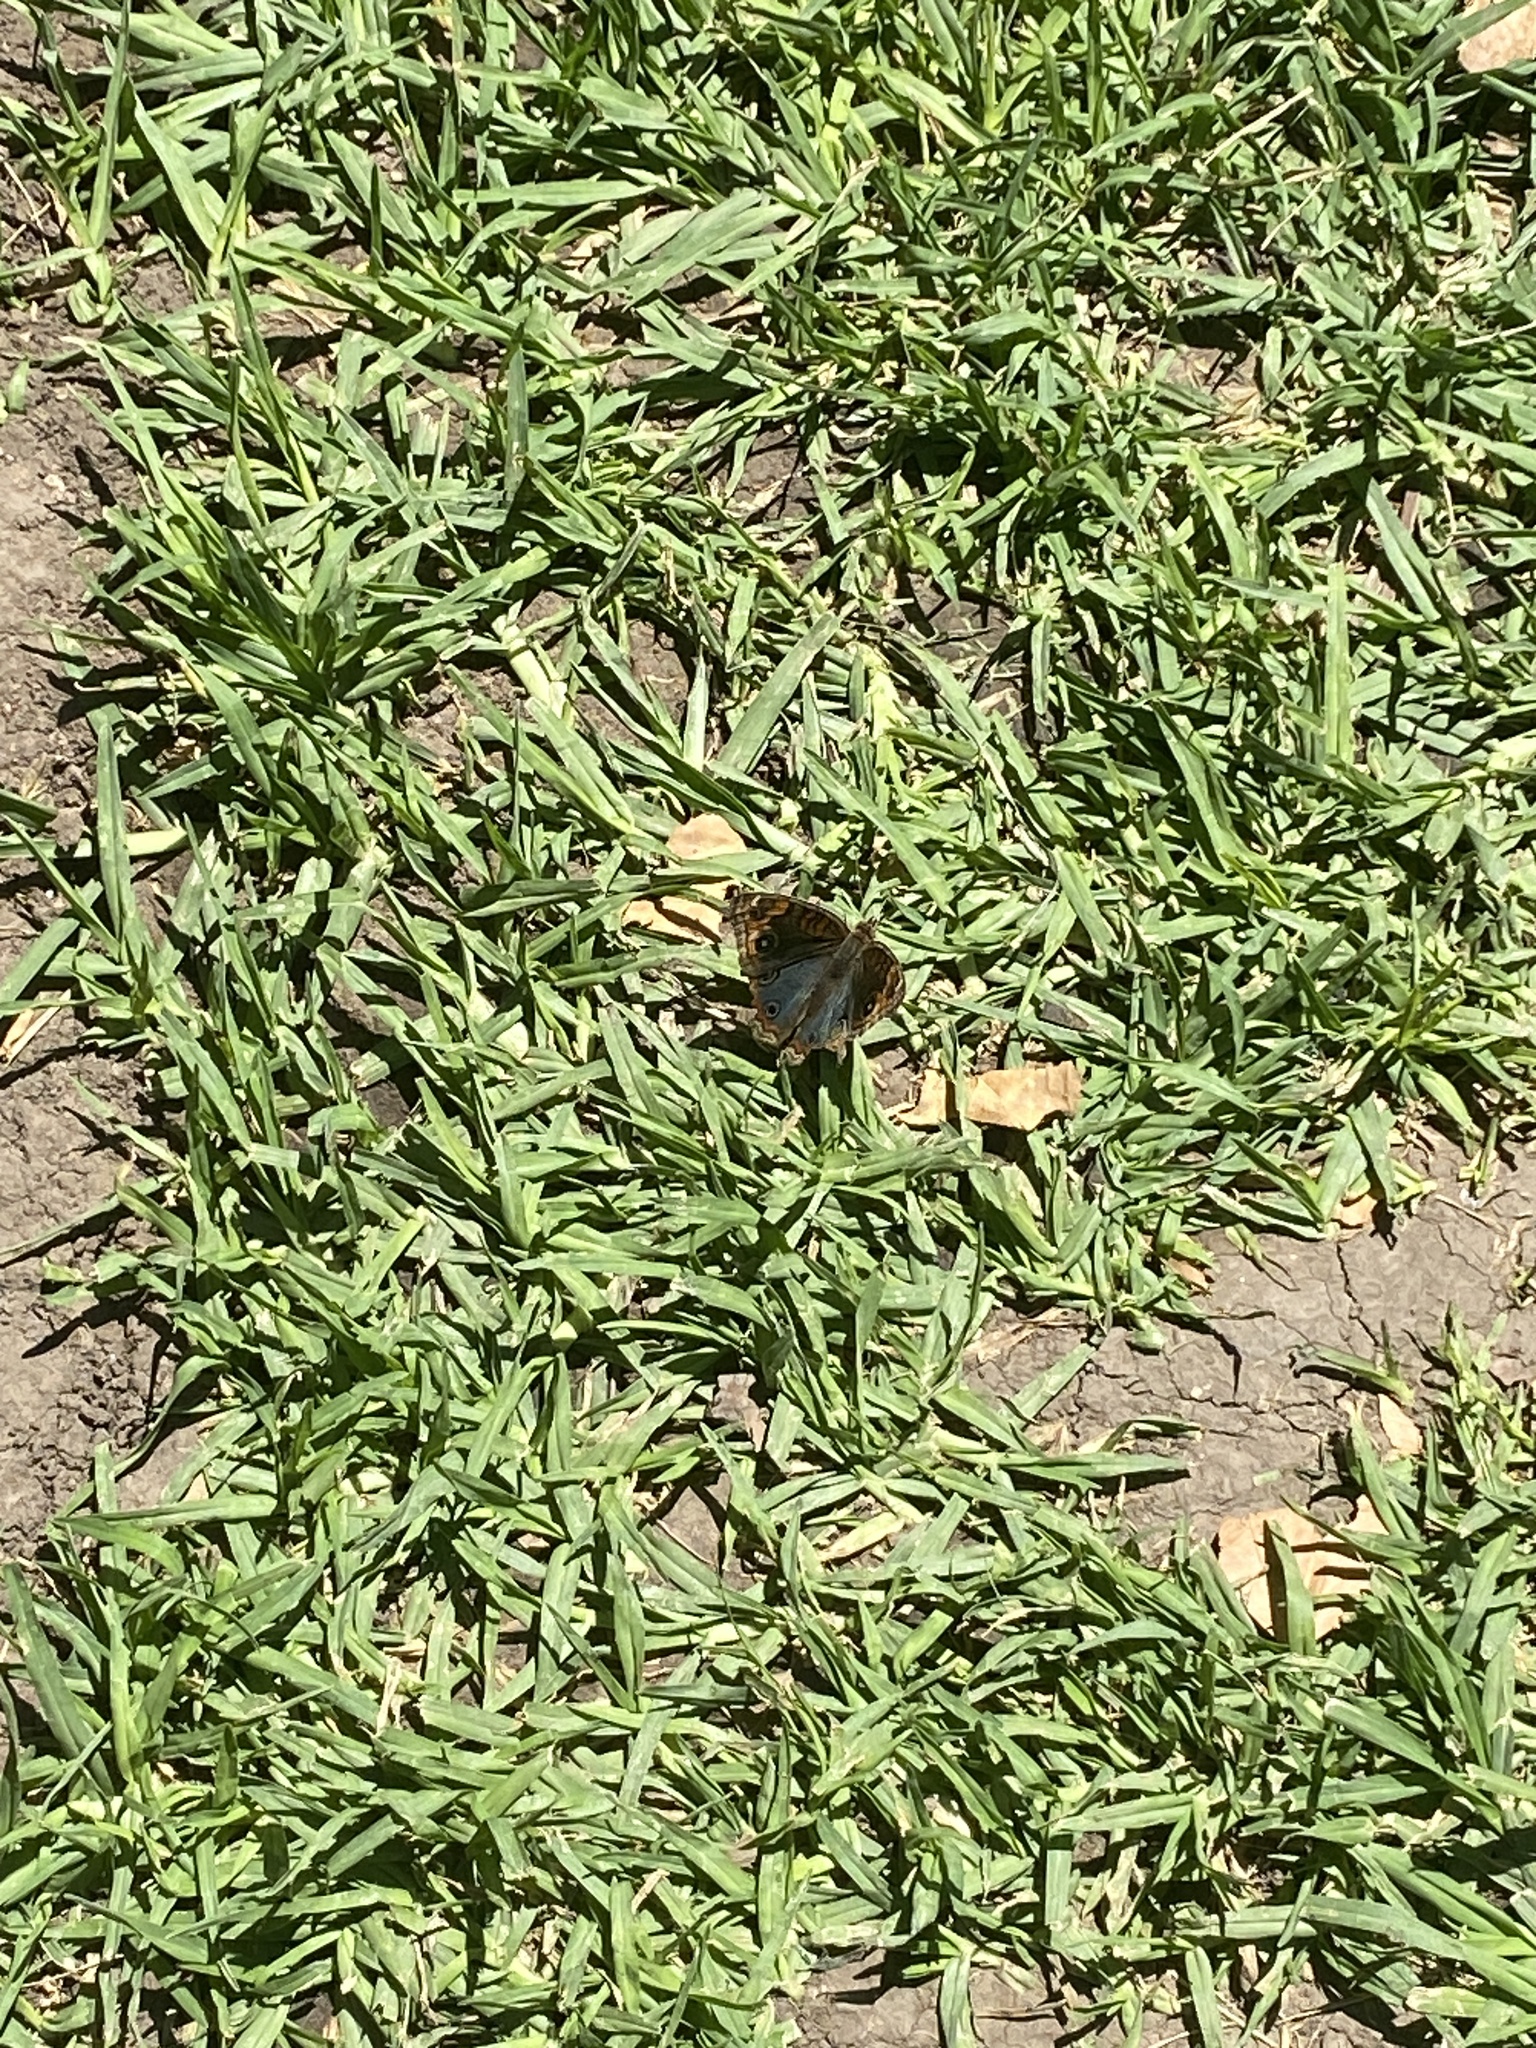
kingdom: Animalia
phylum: Arthropoda
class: Insecta
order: Lepidoptera
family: Nymphalidae
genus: Junonia
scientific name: Junonia lavinia
